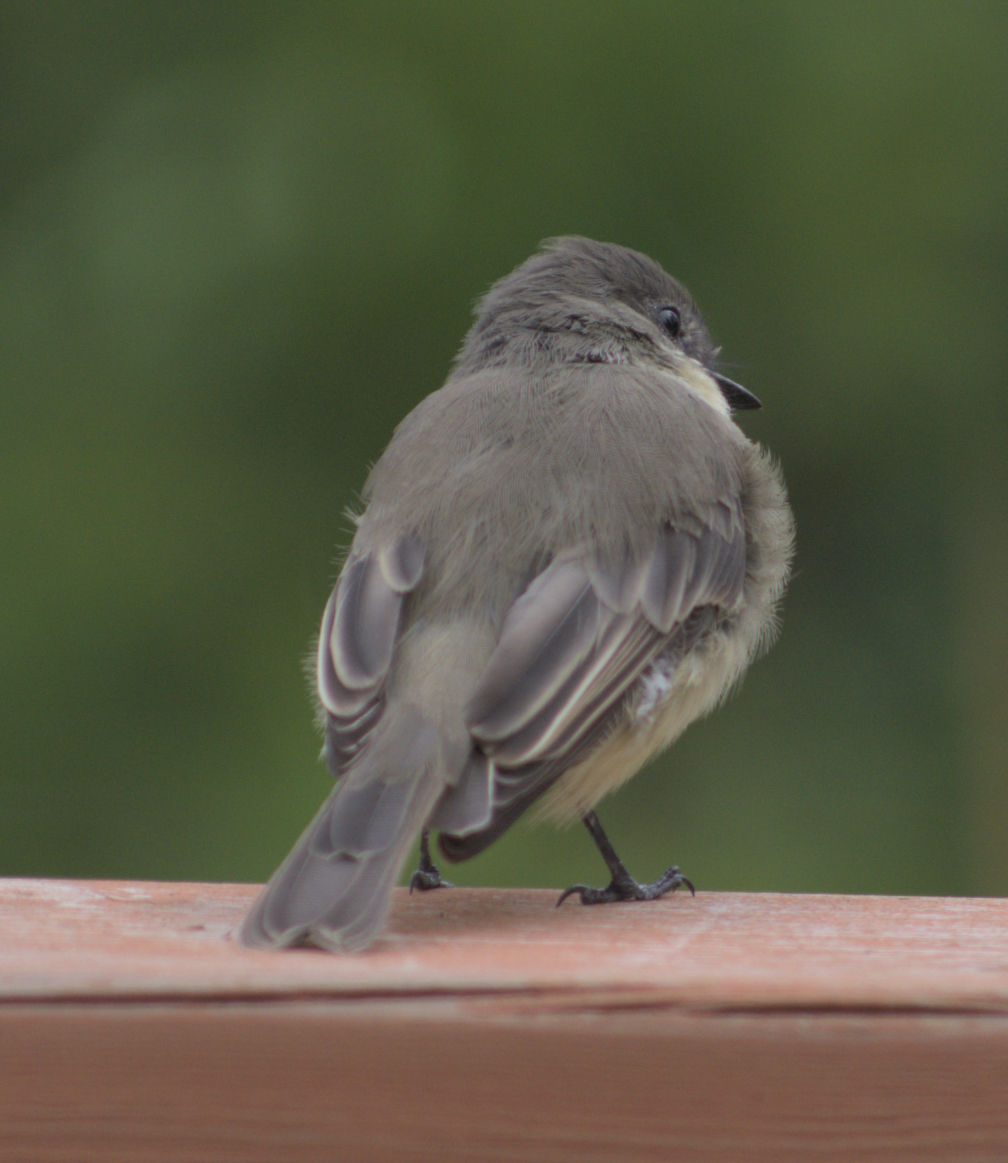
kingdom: Animalia
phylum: Chordata
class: Aves
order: Passeriformes
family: Tyrannidae
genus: Sayornis
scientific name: Sayornis phoebe
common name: Eastern phoebe
